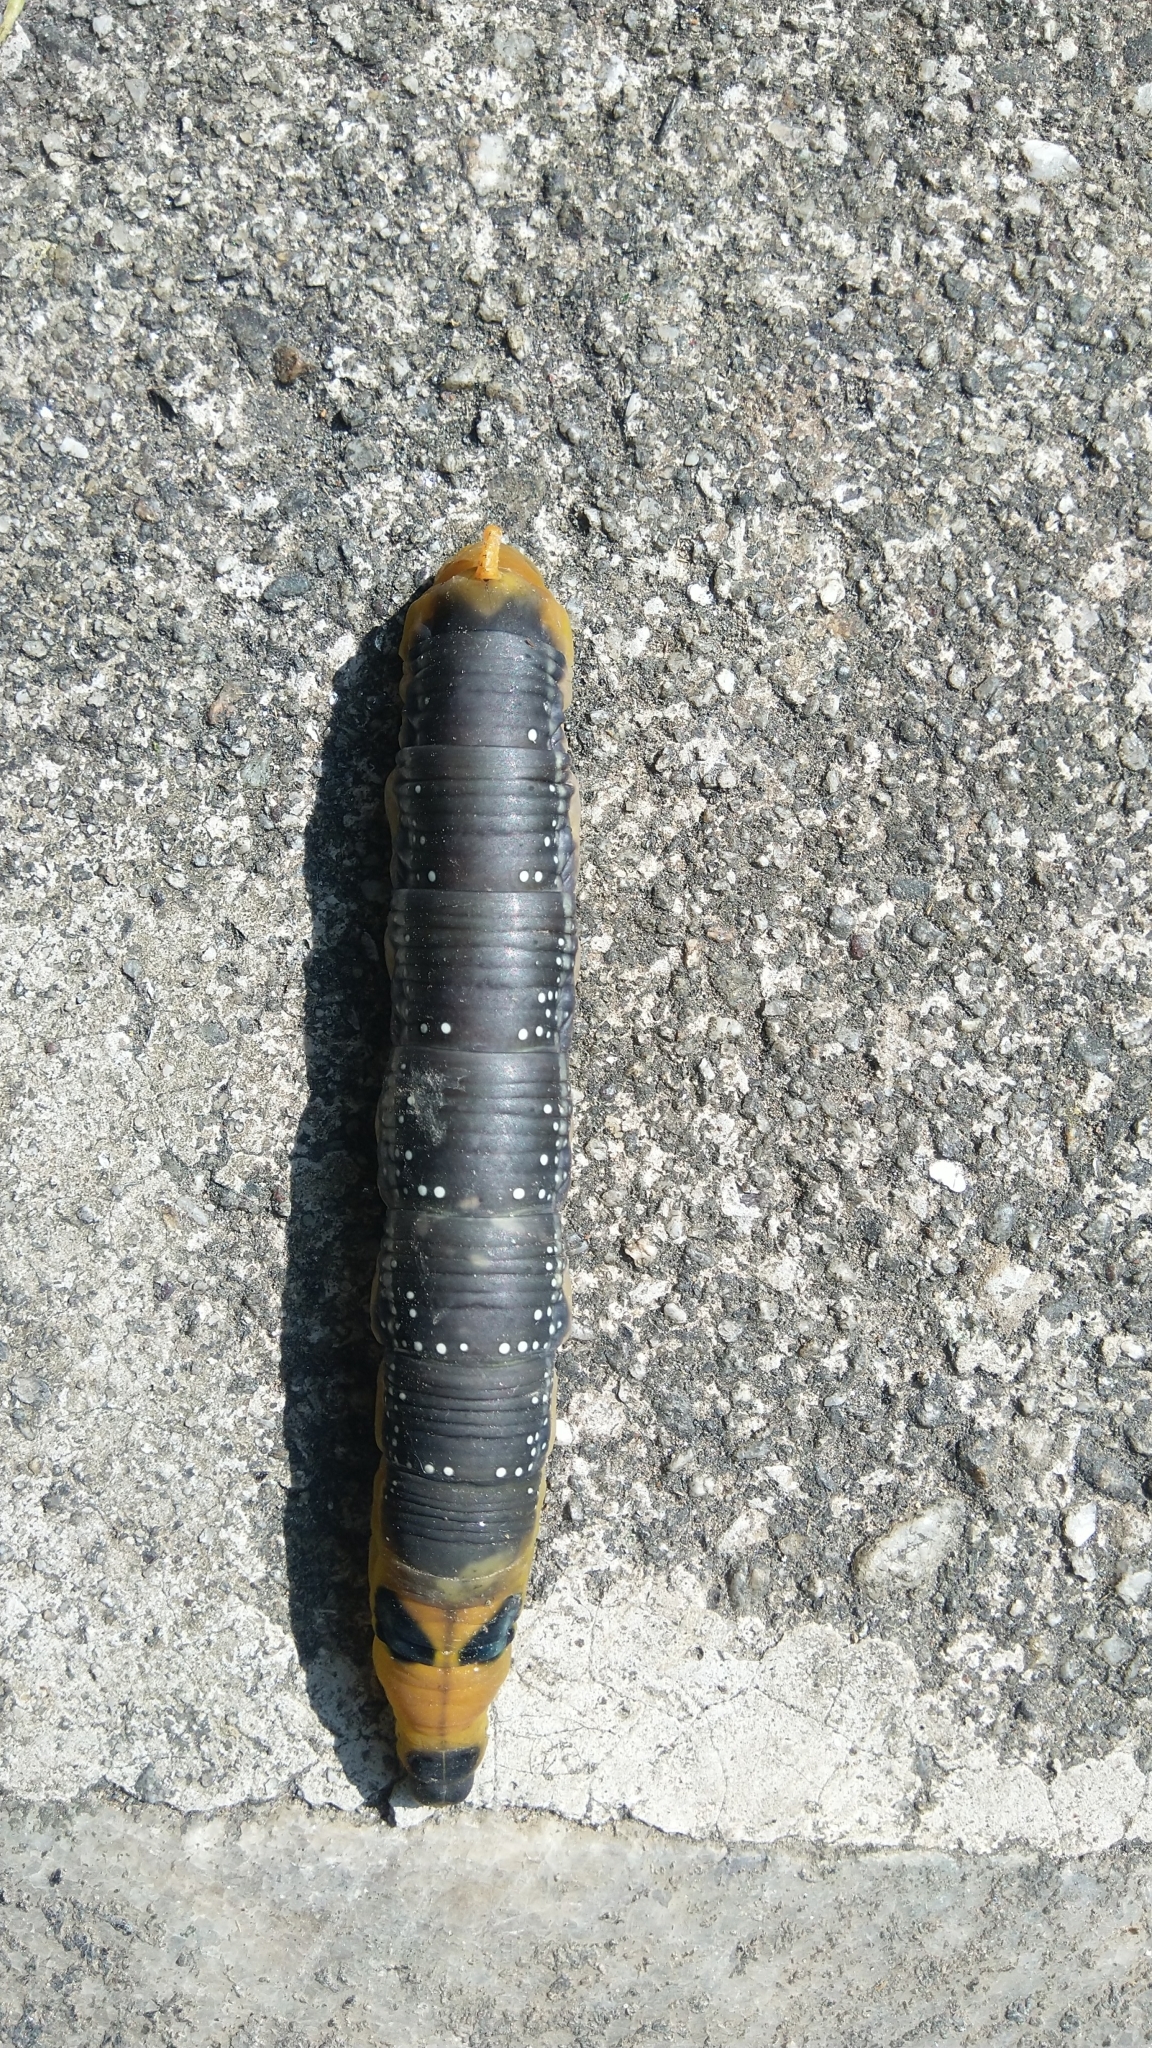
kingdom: Animalia
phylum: Arthropoda
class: Insecta
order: Lepidoptera
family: Sphingidae
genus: Daphnis
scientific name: Daphnis nerii
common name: Oleander hawk-moth
